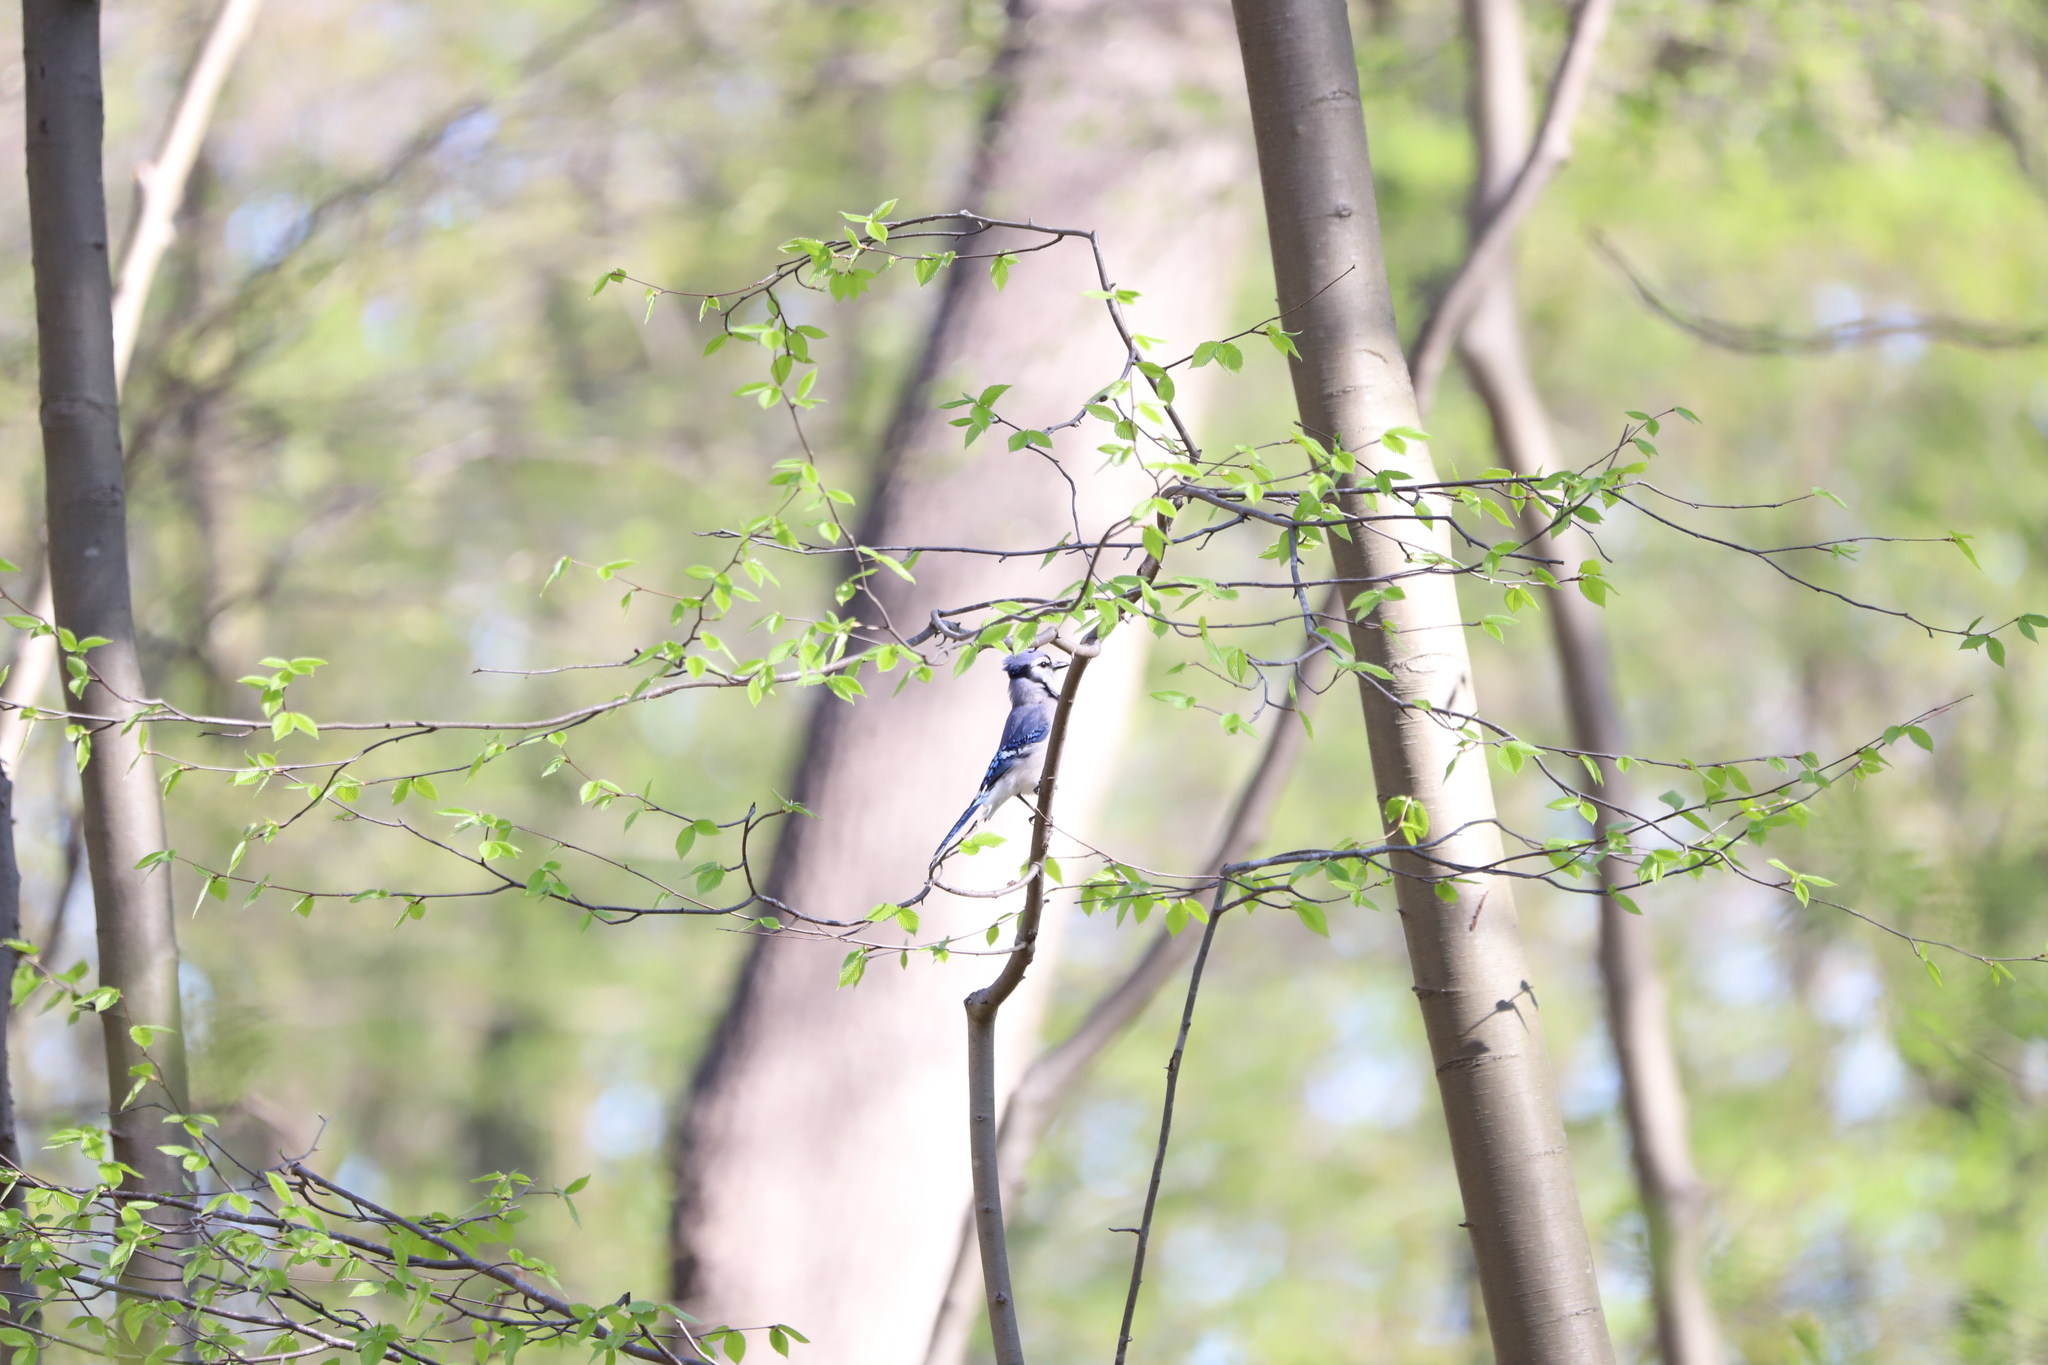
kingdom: Animalia
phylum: Chordata
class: Aves
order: Passeriformes
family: Corvidae
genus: Cyanocitta
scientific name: Cyanocitta cristata
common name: Blue jay
